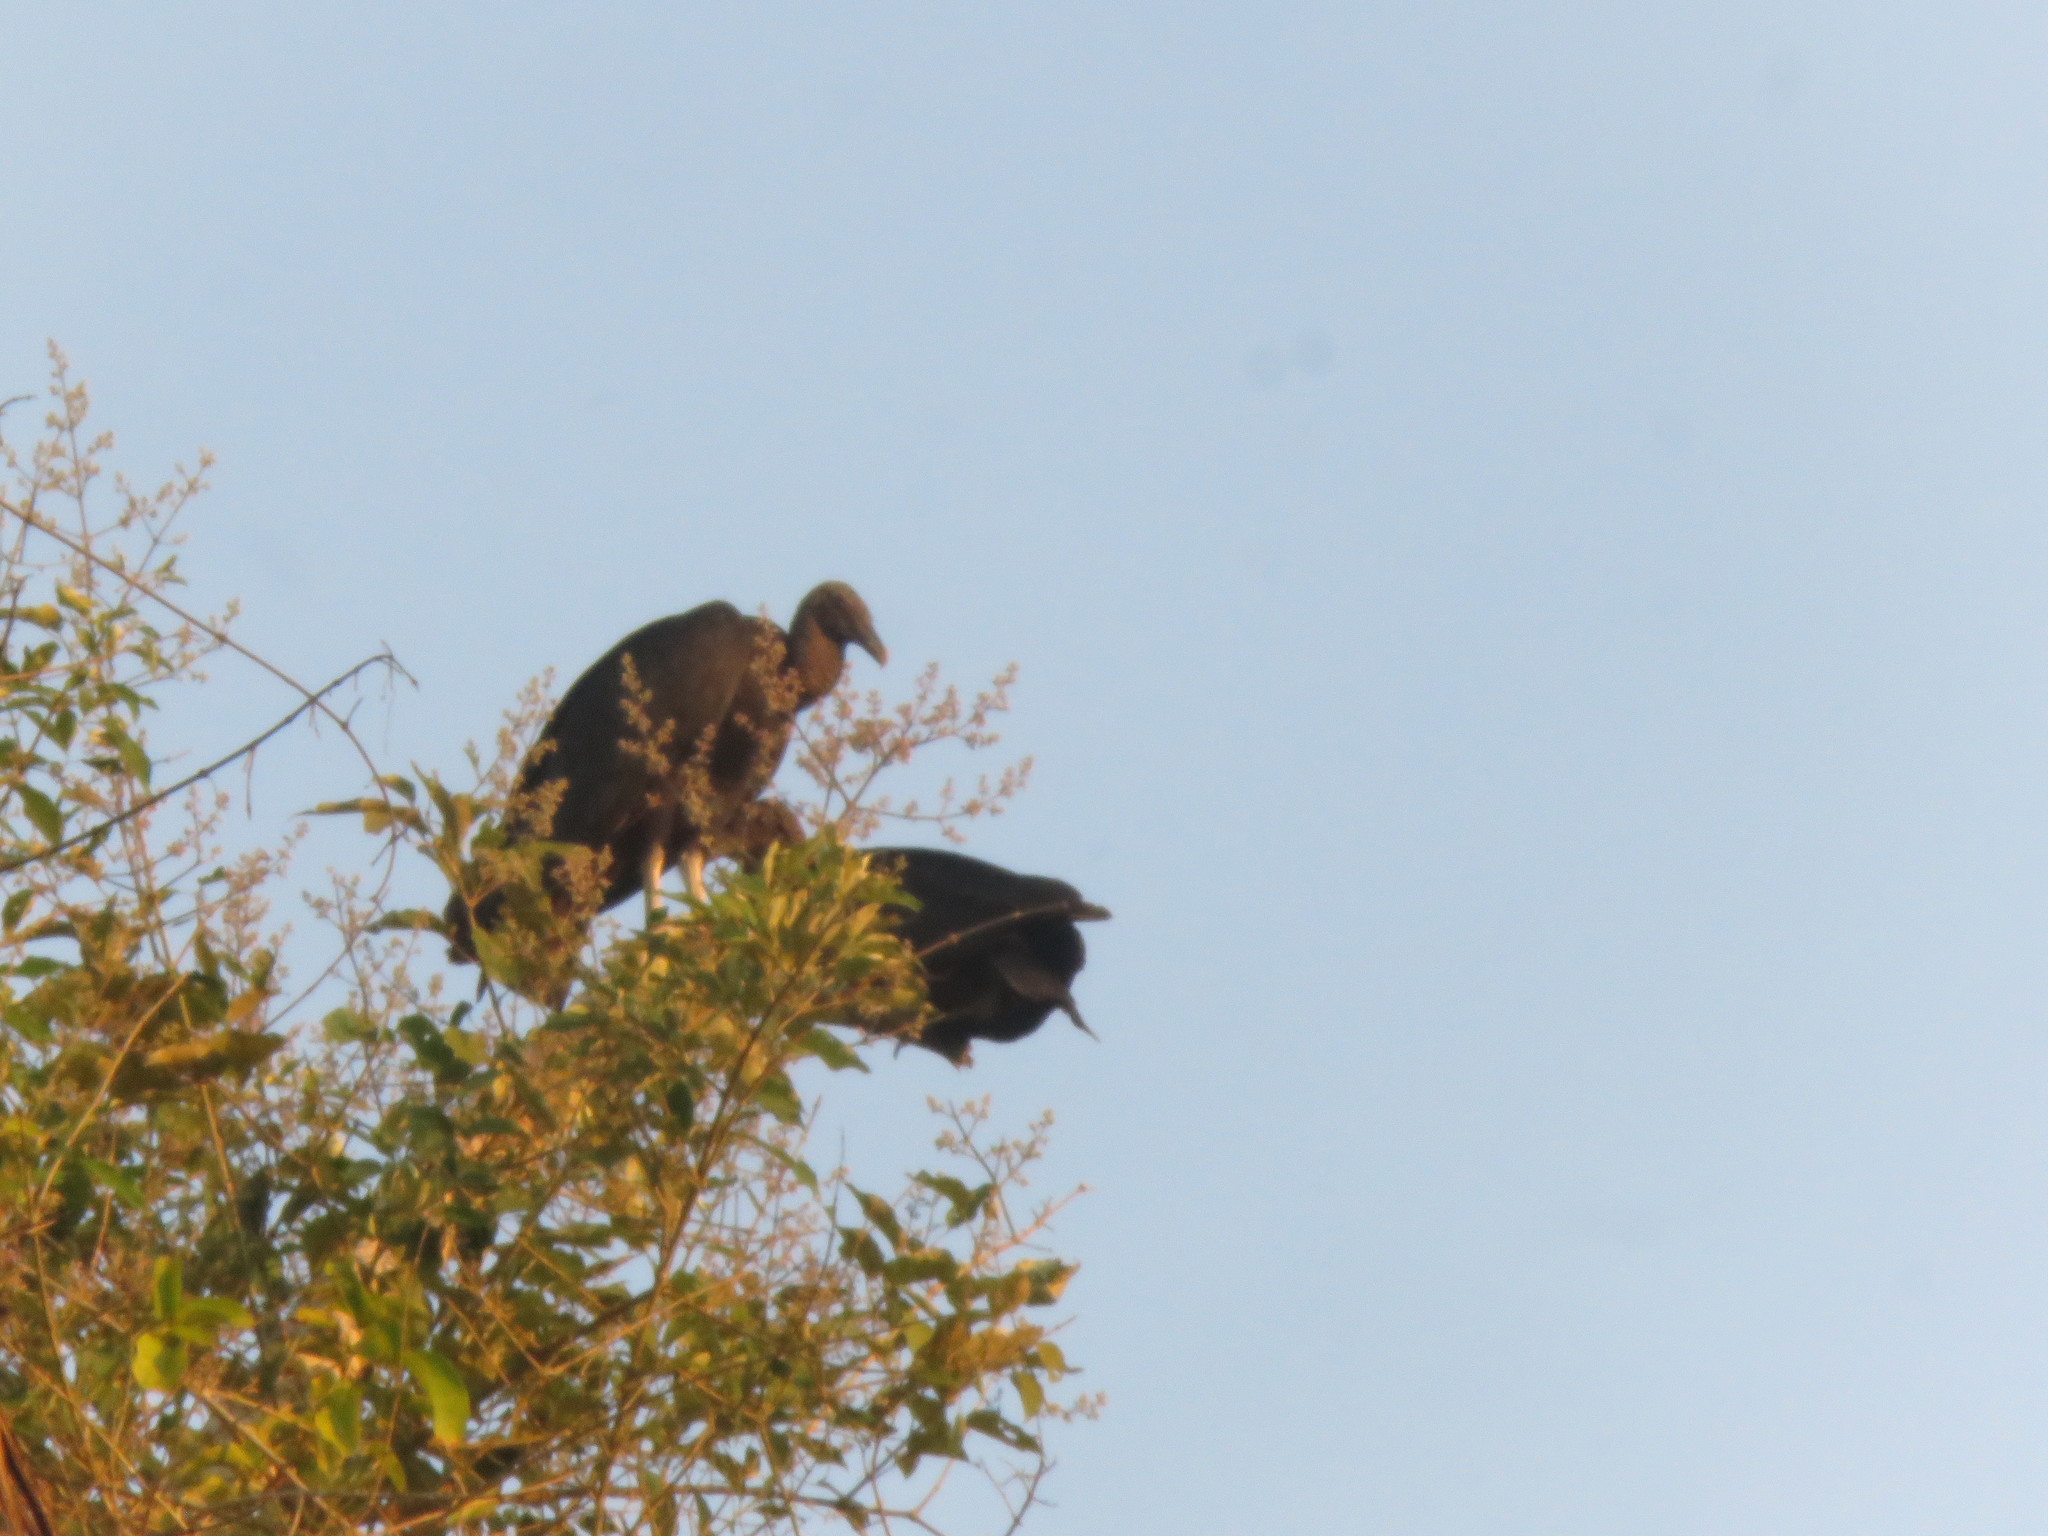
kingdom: Animalia
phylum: Chordata
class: Aves
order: Accipitriformes
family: Cathartidae
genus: Coragyps
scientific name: Coragyps atratus
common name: Black vulture
